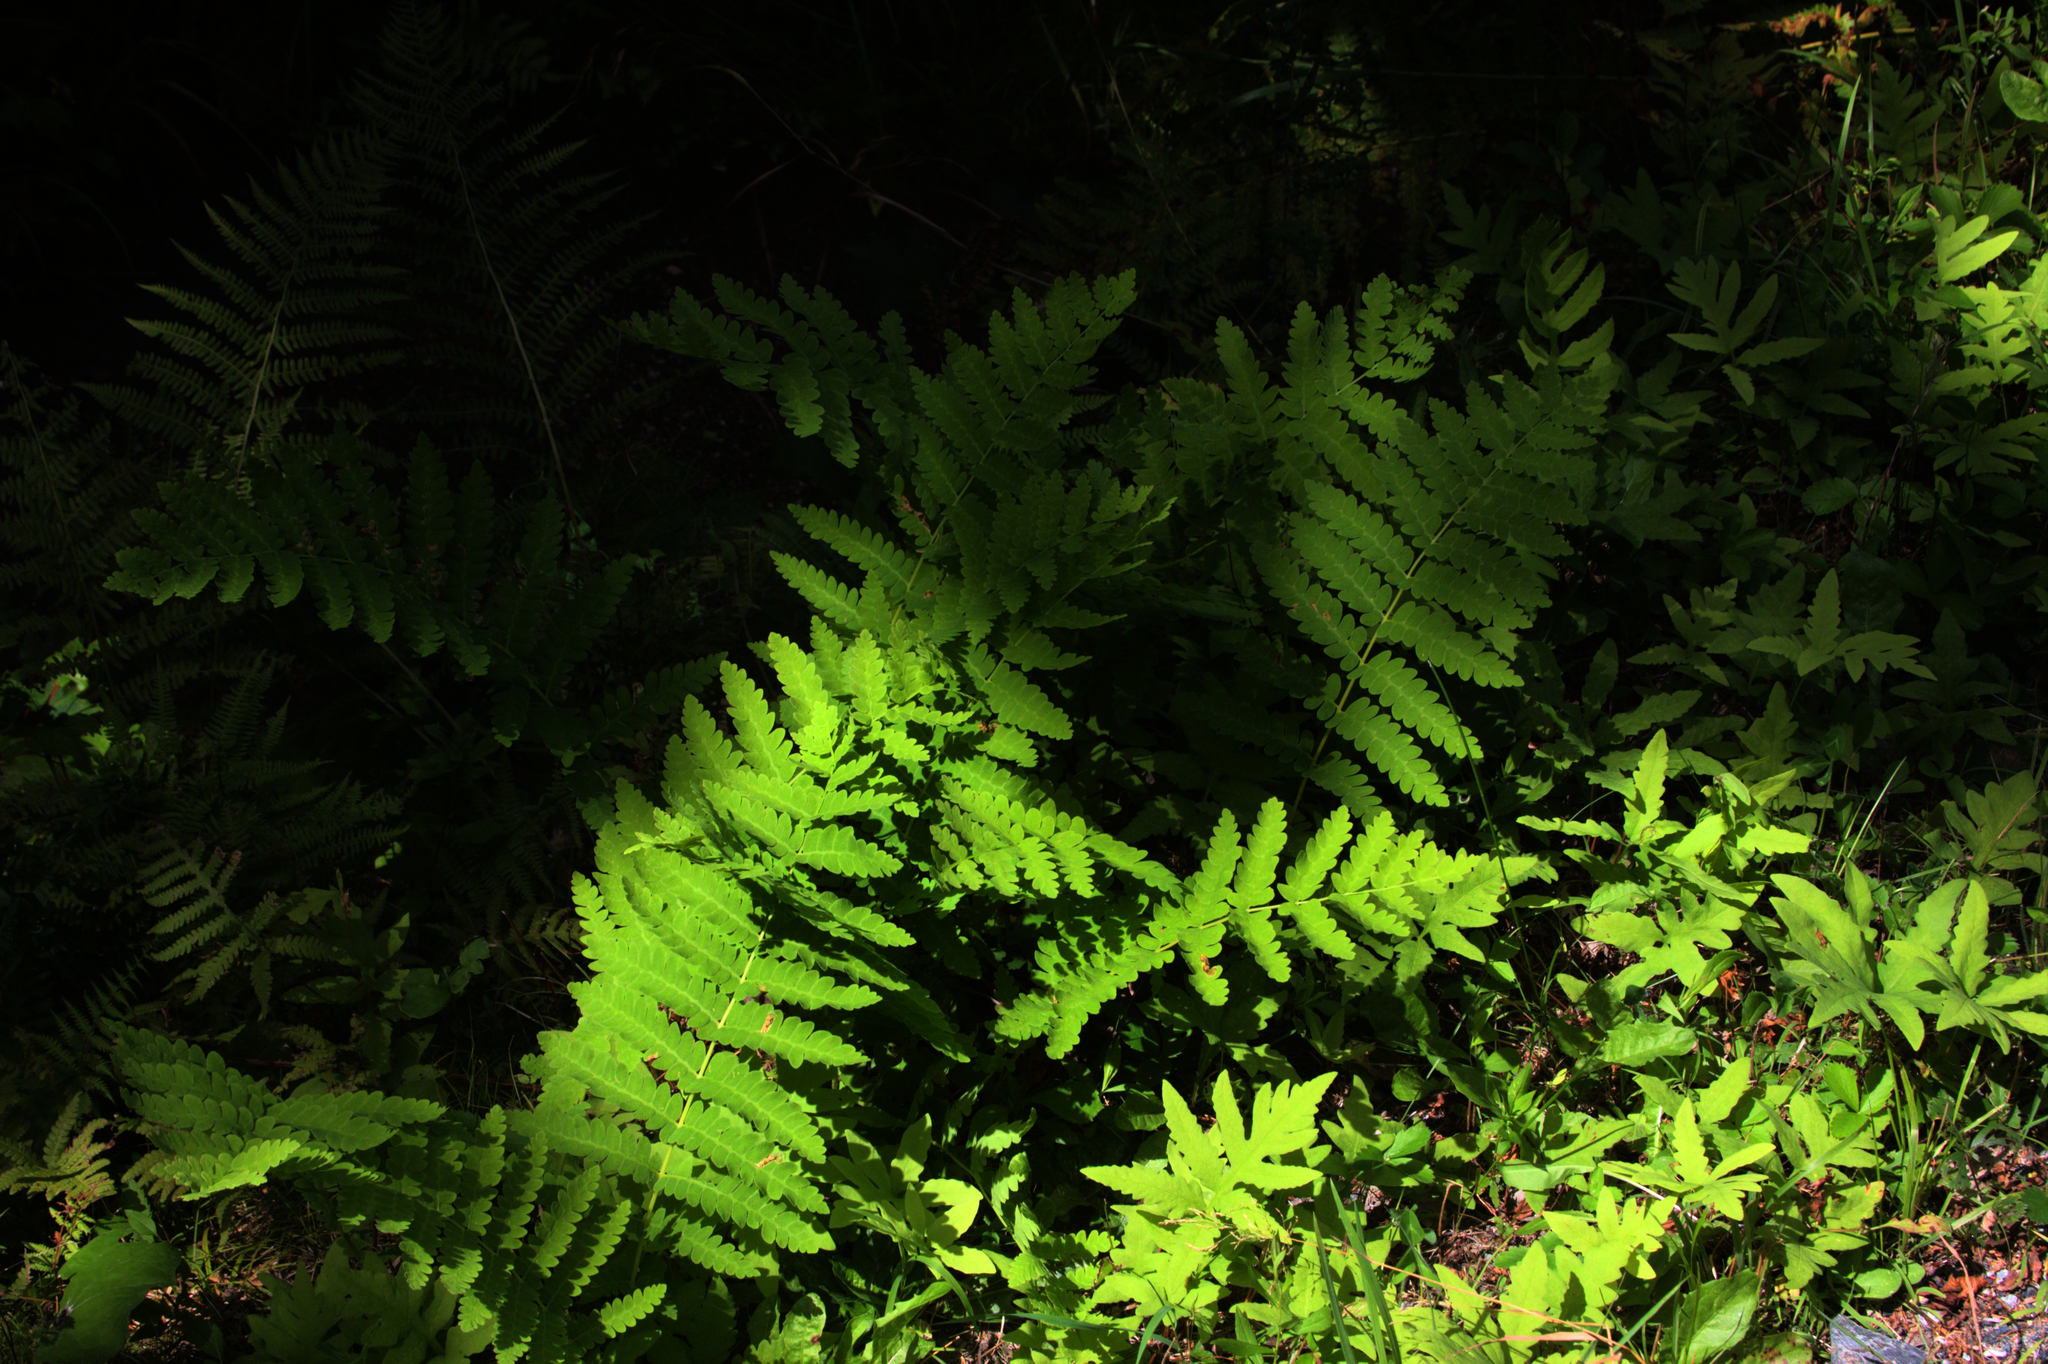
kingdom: Plantae
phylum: Tracheophyta
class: Polypodiopsida
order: Osmundales
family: Osmundaceae
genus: Claytosmunda
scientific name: Claytosmunda claytoniana
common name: Clayton's fern
